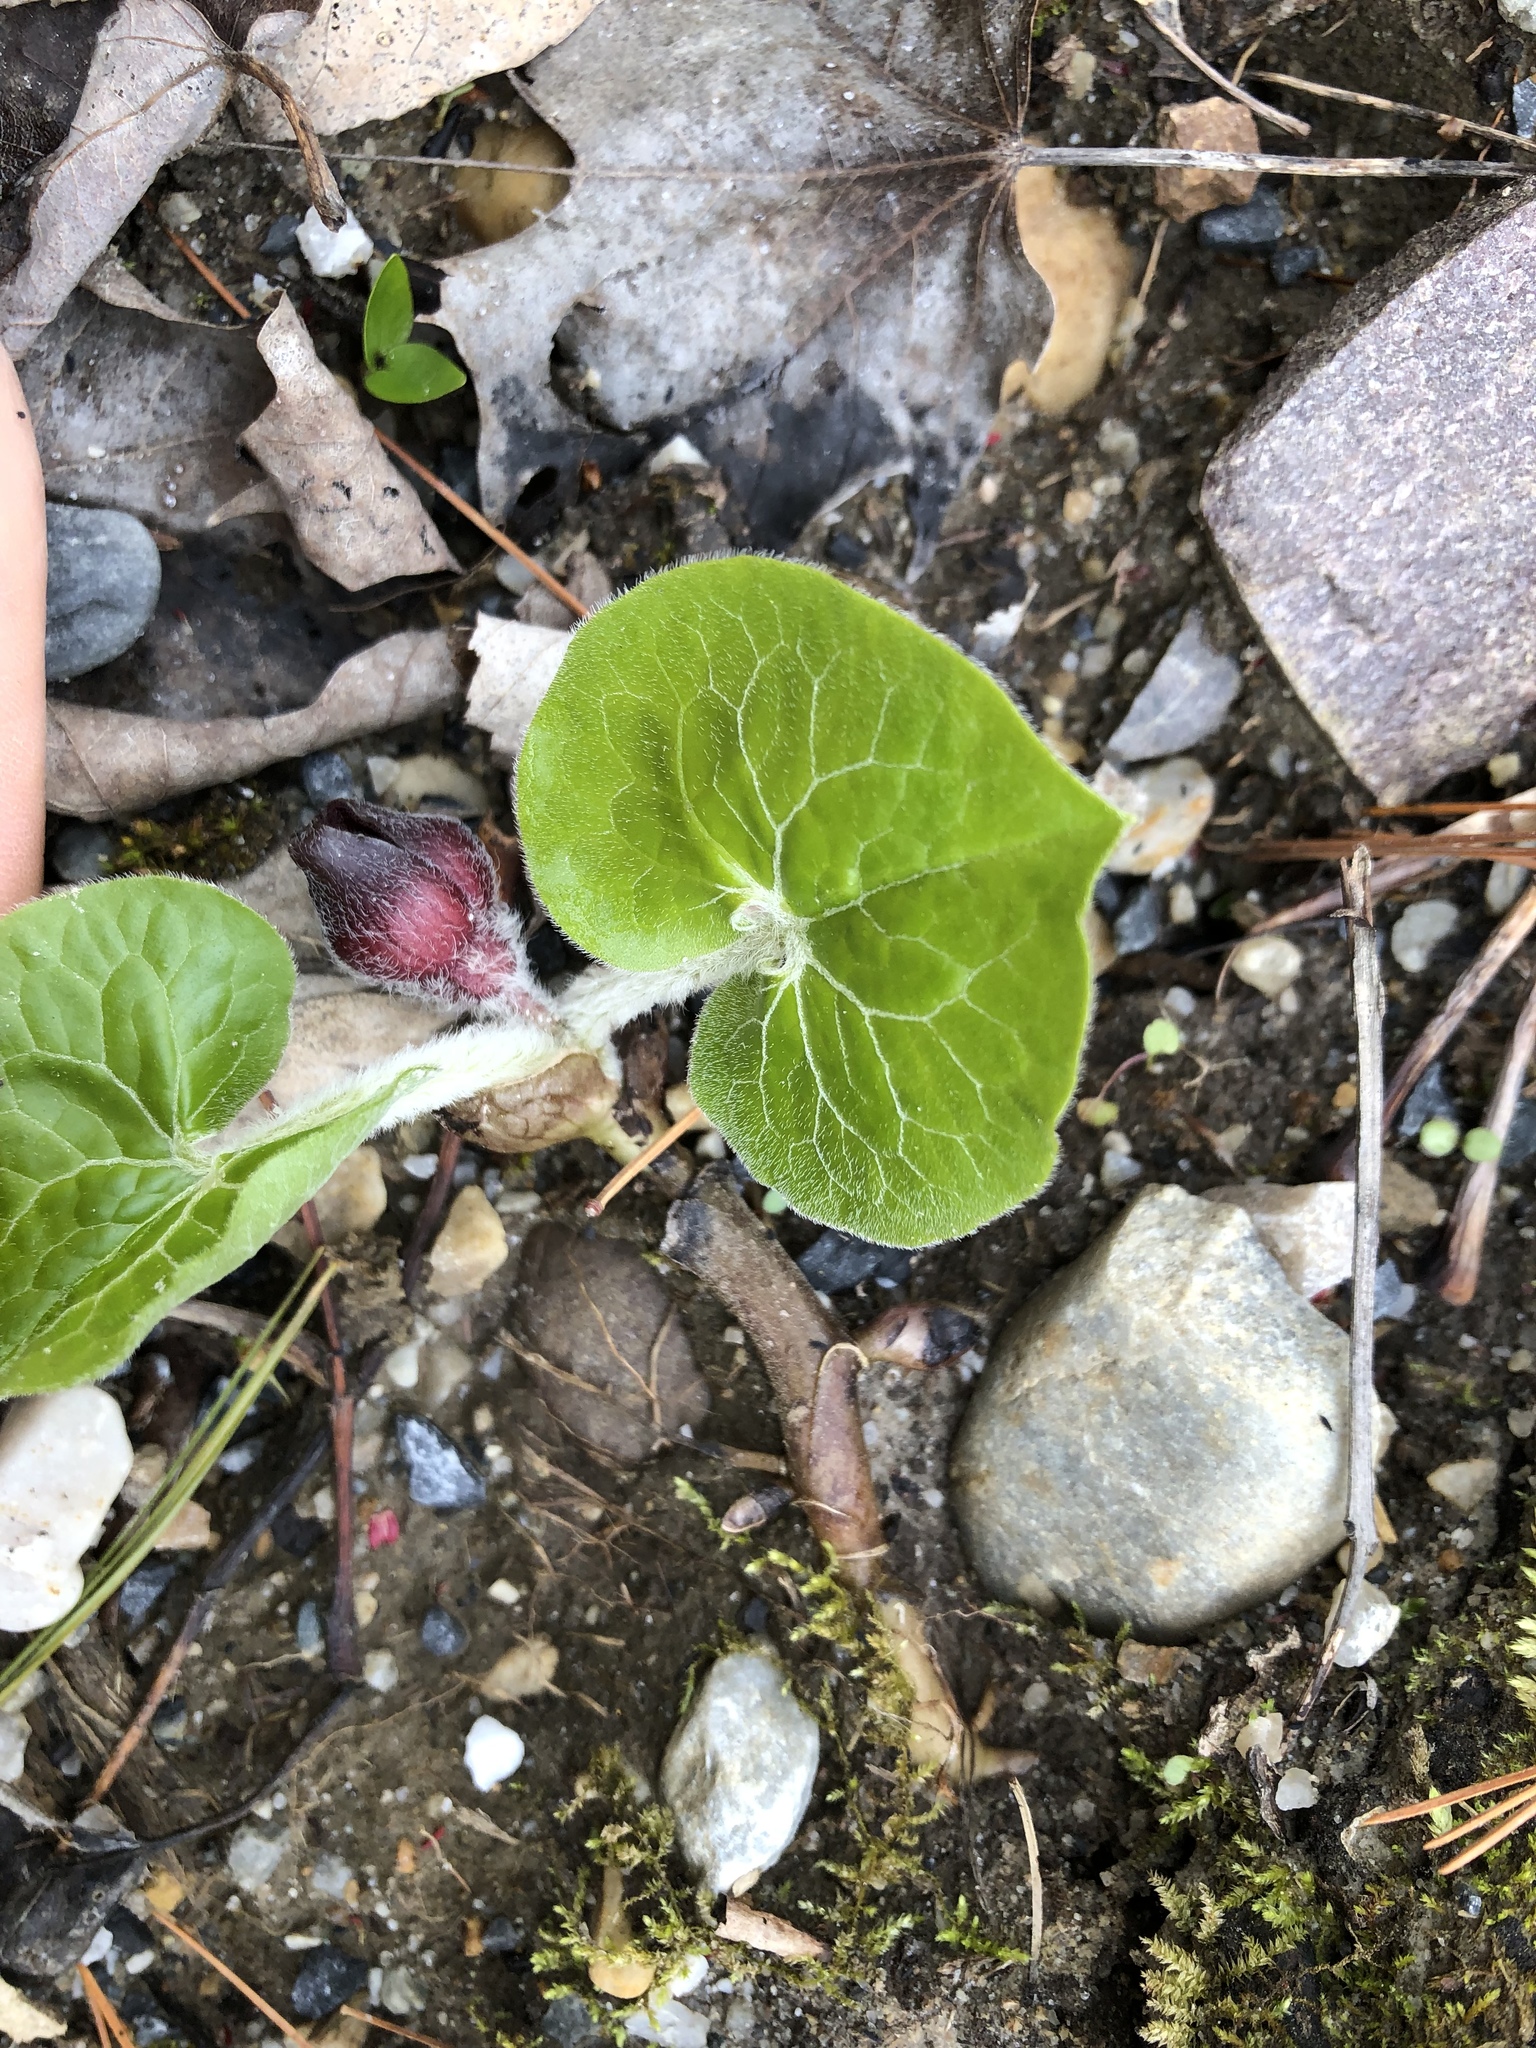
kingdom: Plantae
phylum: Tracheophyta
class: Magnoliopsida
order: Piperales
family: Aristolochiaceae
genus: Asarum
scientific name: Asarum canadense
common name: Wild ginger
